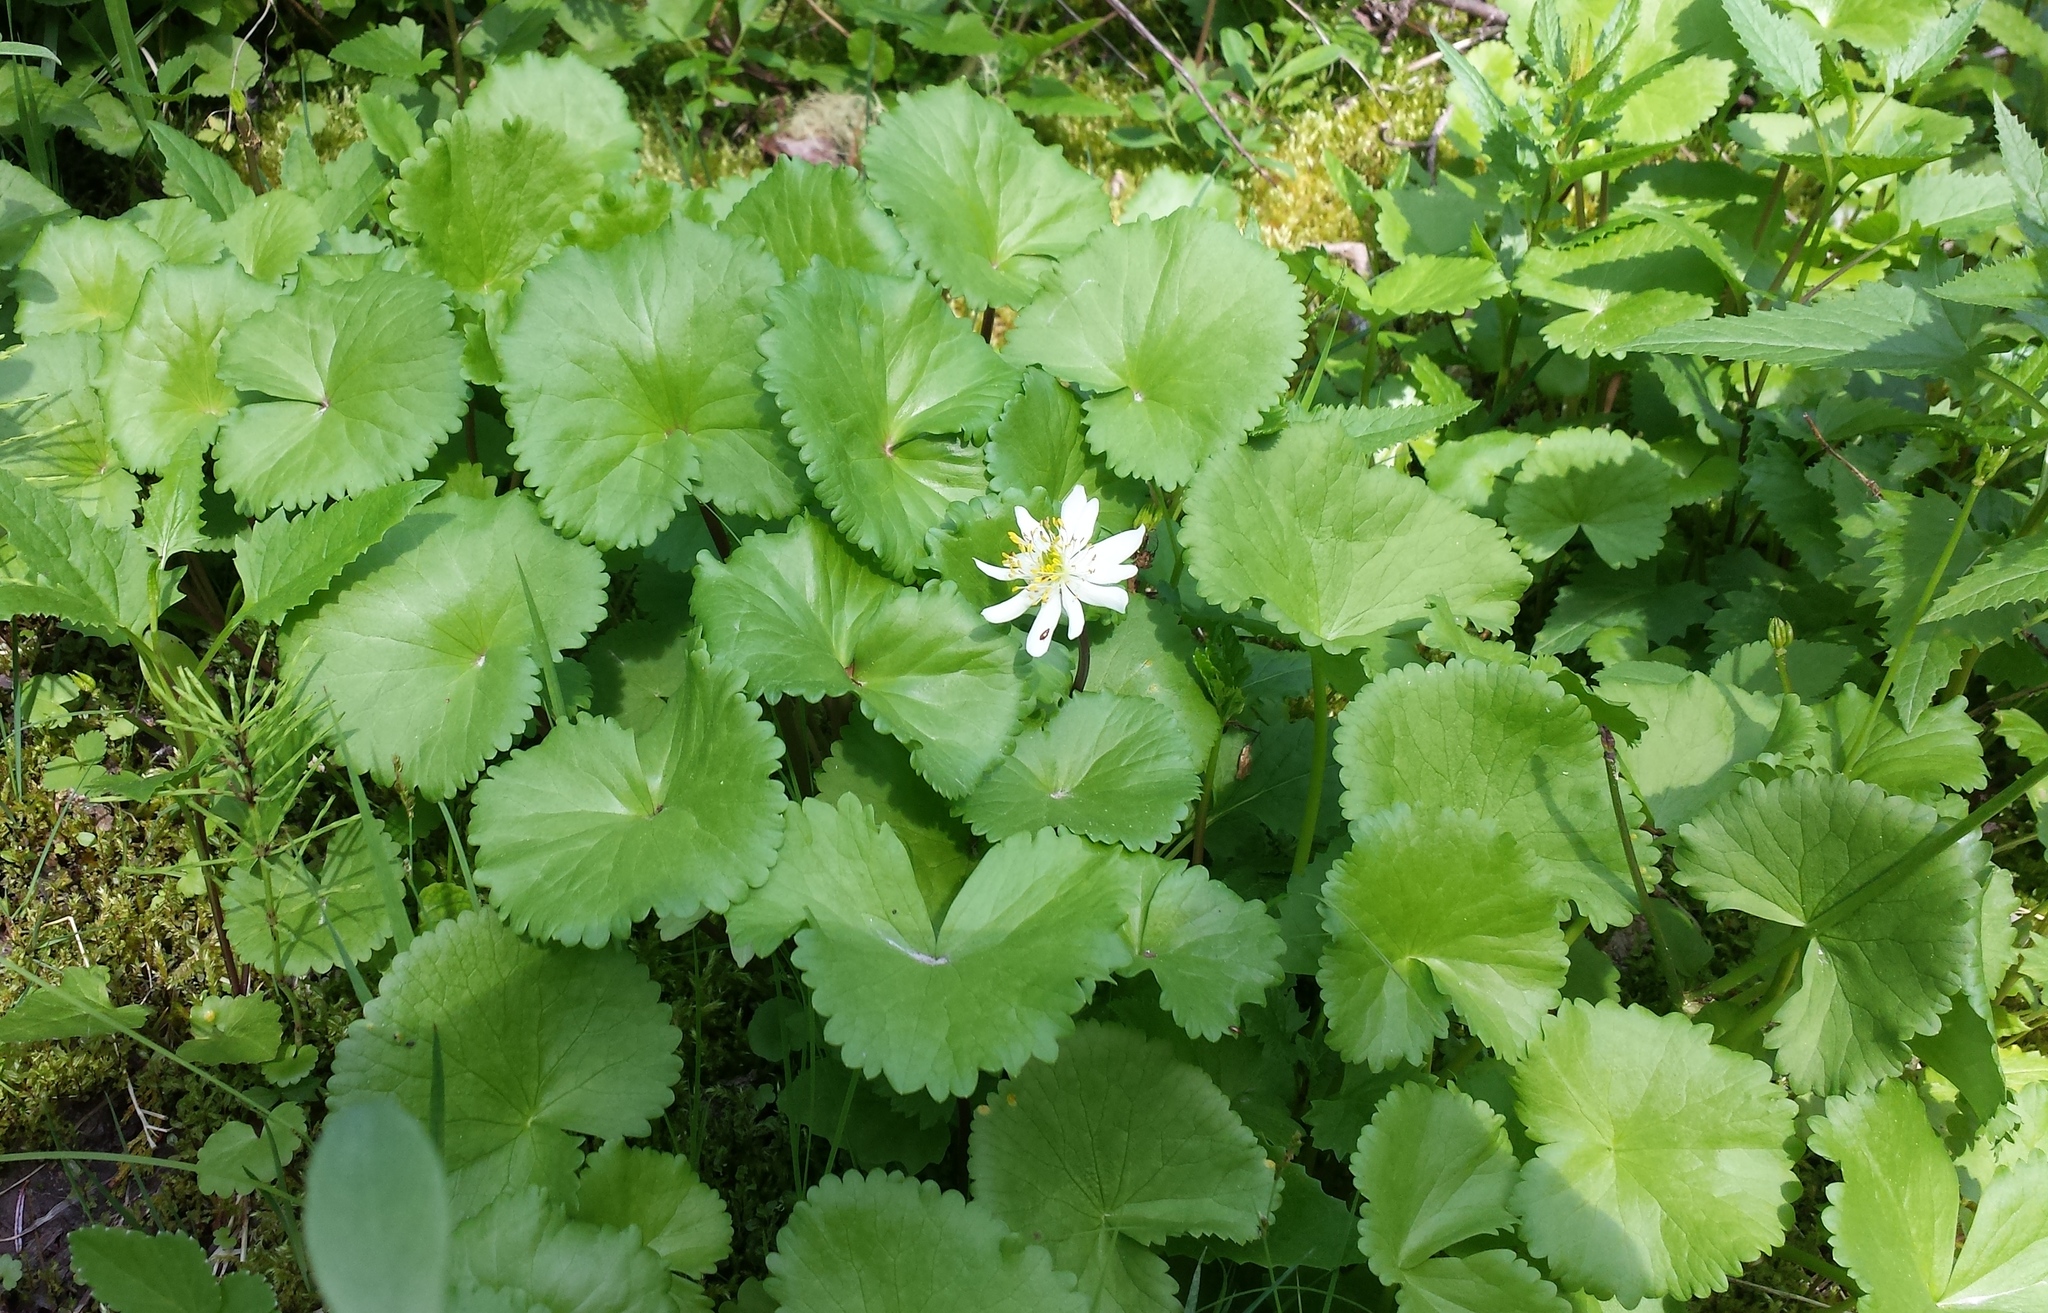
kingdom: Plantae
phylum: Tracheophyta
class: Magnoliopsida
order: Ranunculales
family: Ranunculaceae
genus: Caltha
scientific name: Caltha leptosepala
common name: Elkslip
